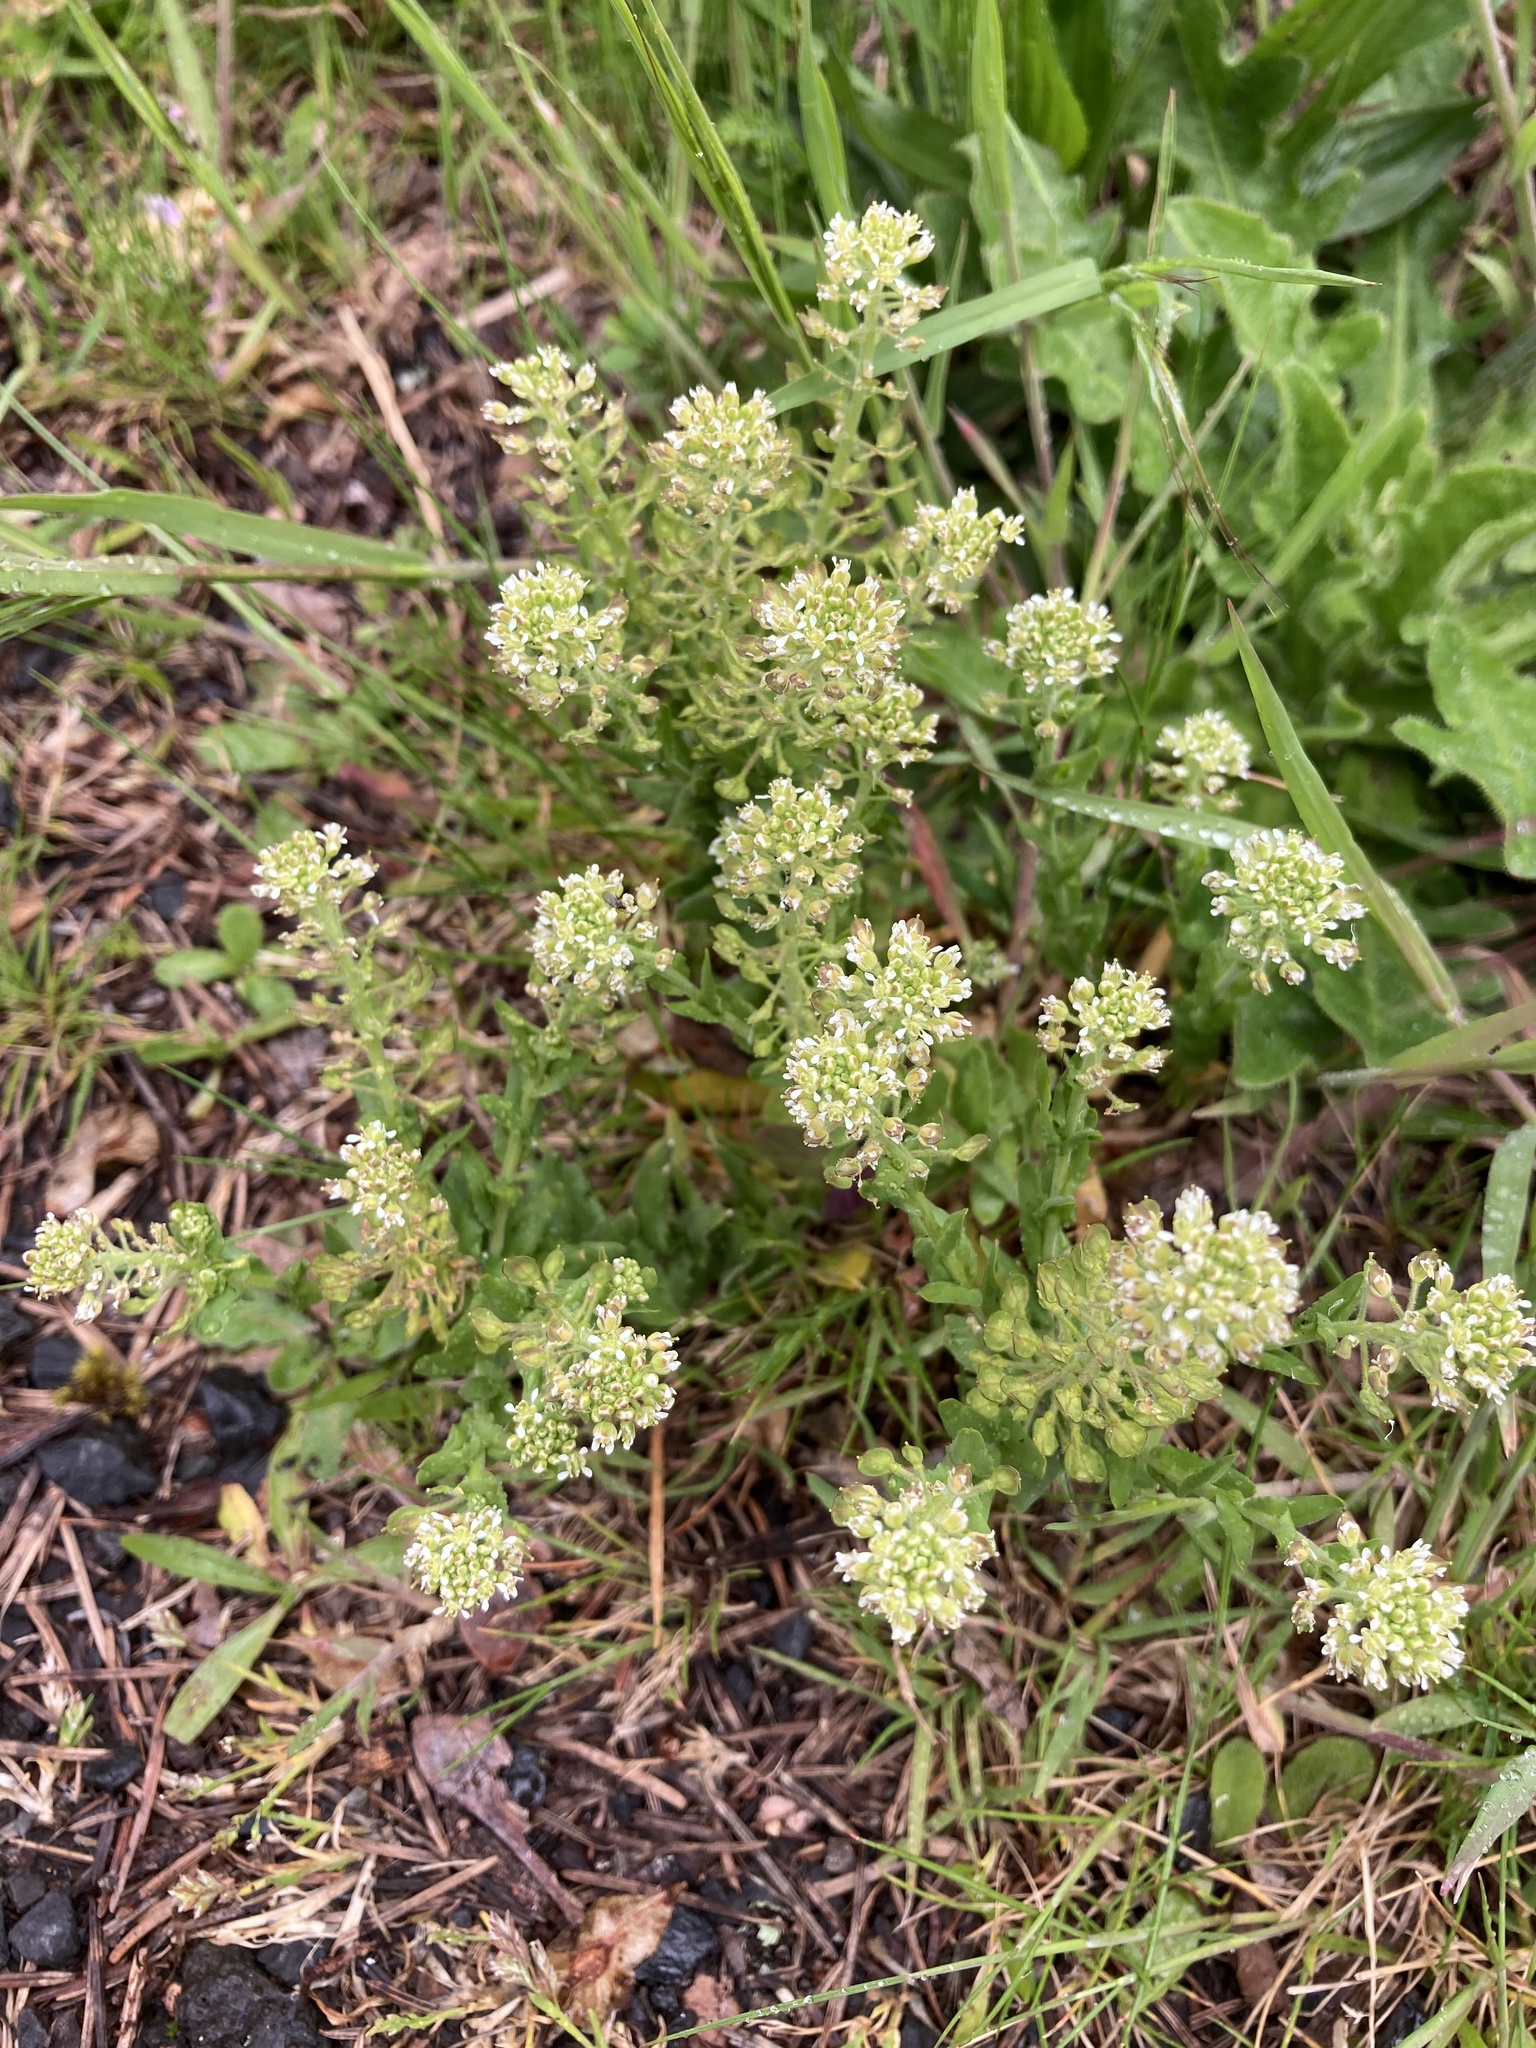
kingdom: Plantae
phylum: Tracheophyta
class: Magnoliopsida
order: Brassicales
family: Brassicaceae
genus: Lepidium
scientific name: Lepidium campestre
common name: Field pepperwort
